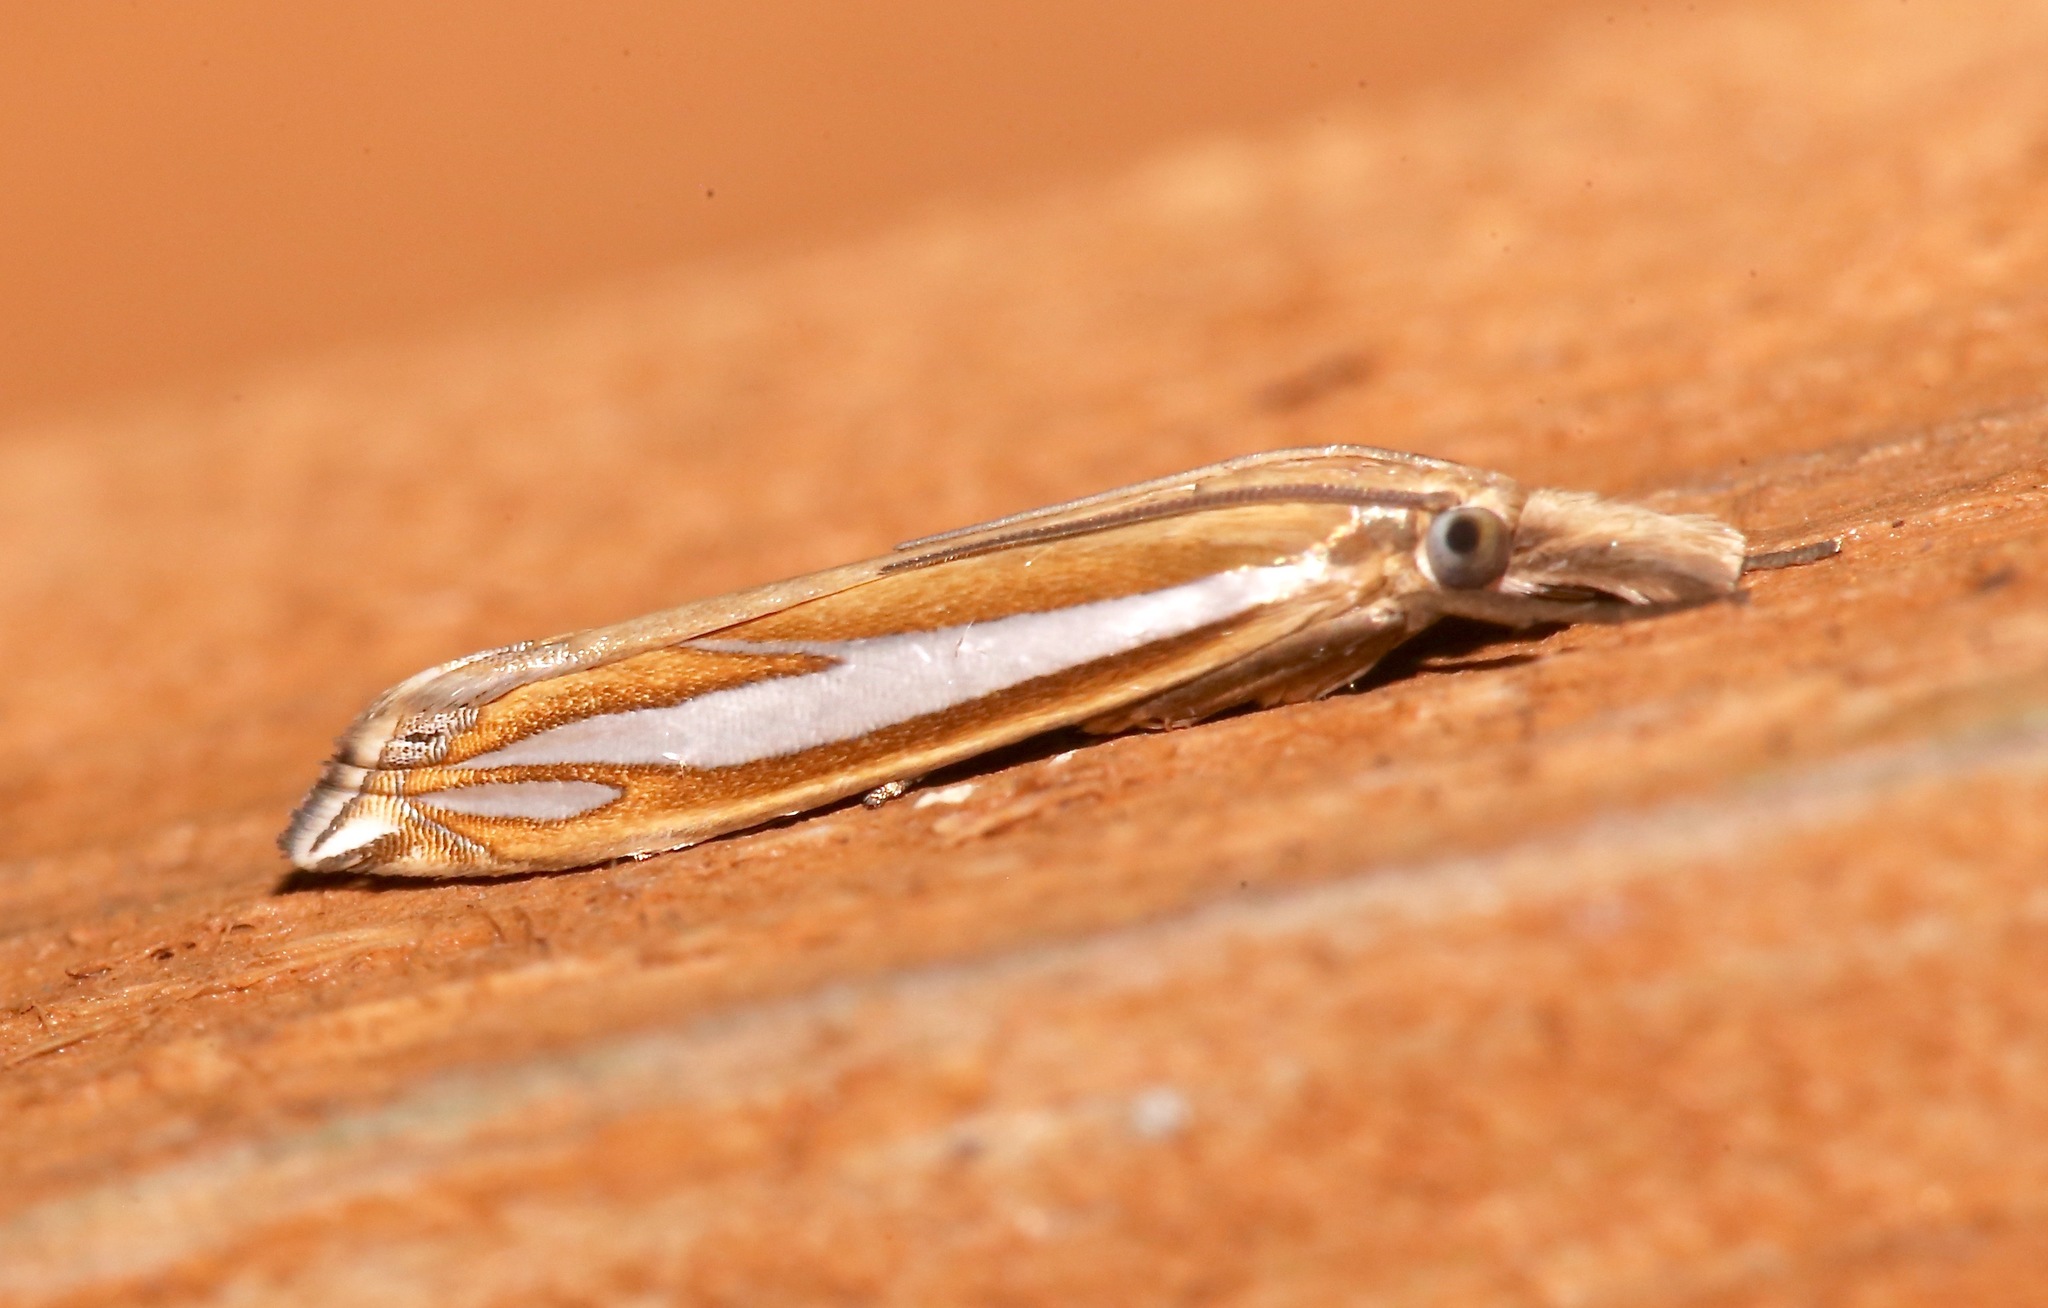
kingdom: Animalia
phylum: Arthropoda
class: Insecta
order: Lepidoptera
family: Crambidae
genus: Crambus
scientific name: Crambus satrapellus
